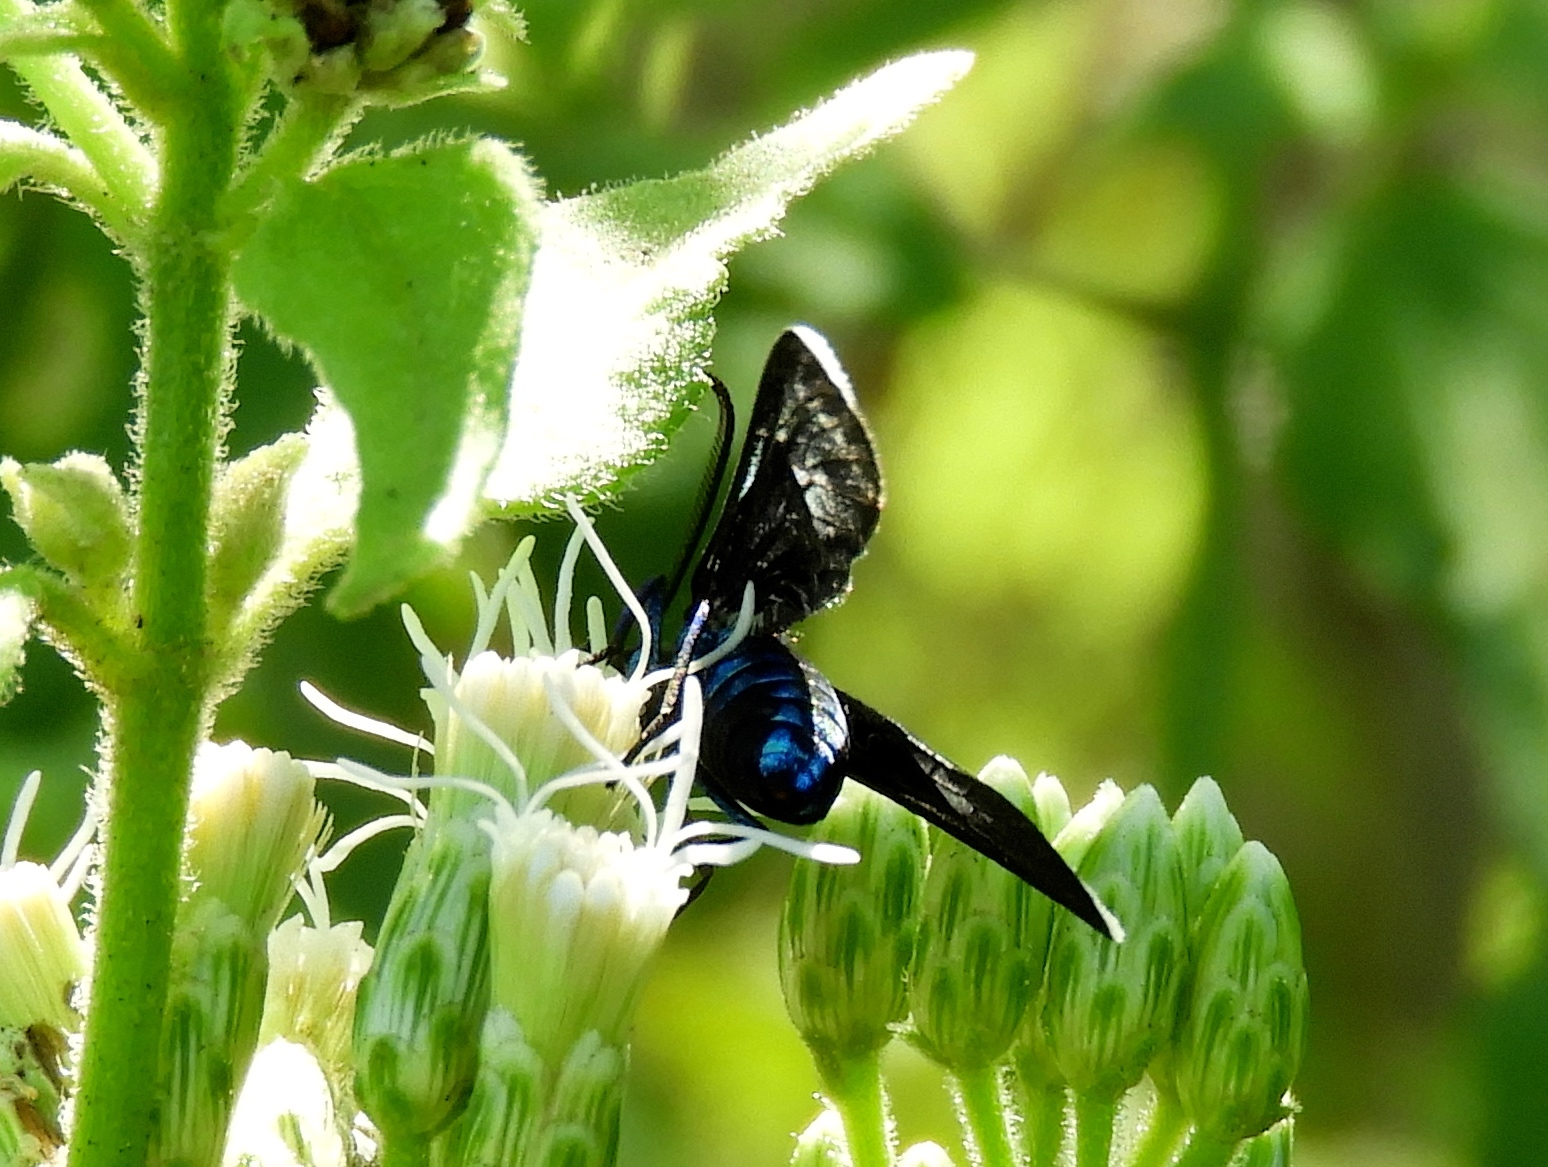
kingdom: Animalia
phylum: Arthropoda
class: Insecta
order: Lepidoptera
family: Erebidae
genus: Uranophora
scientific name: Uranophora leucotela
